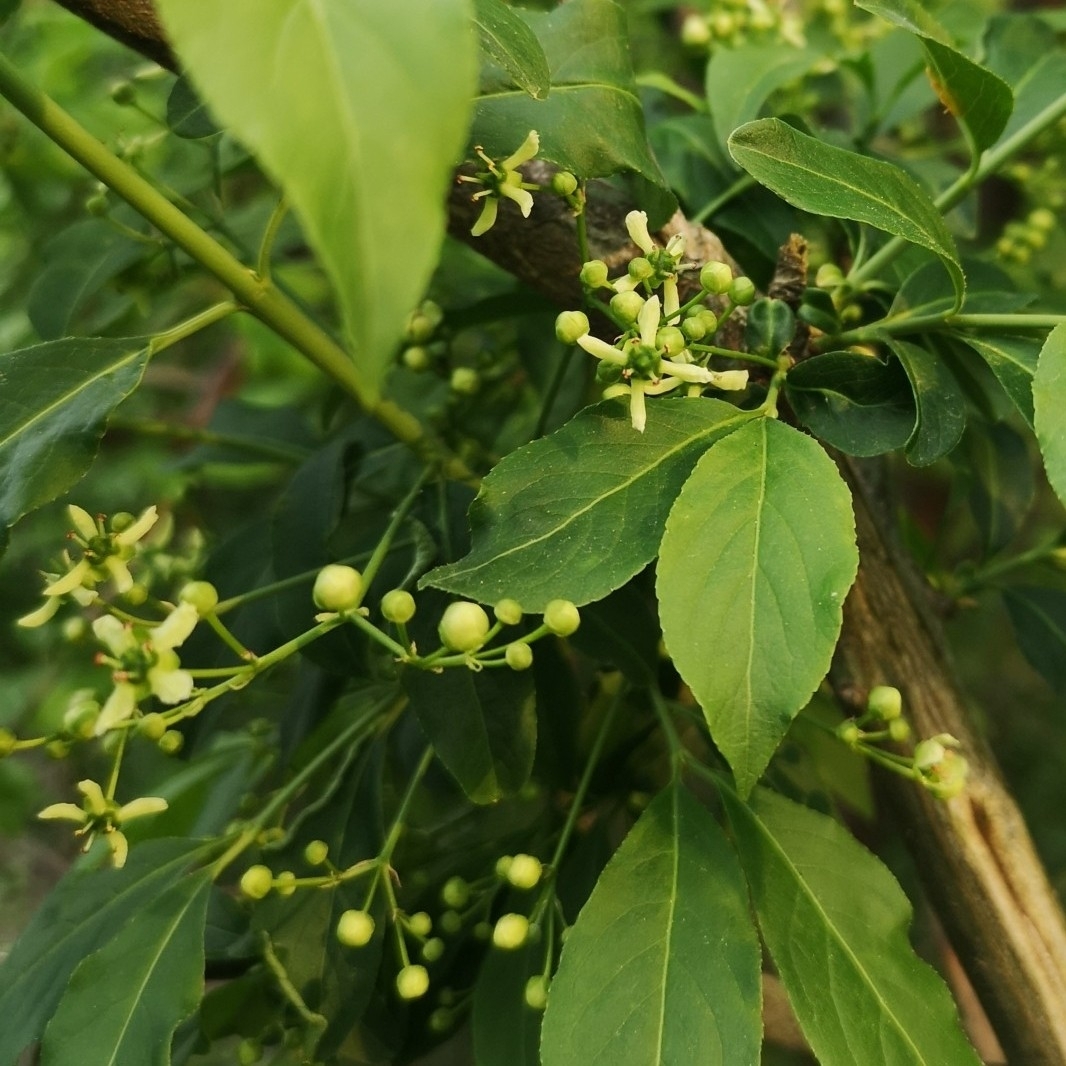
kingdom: Plantae
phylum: Tracheophyta
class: Magnoliopsida
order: Celastrales
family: Celastraceae
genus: Euonymus
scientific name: Euonymus europaeus
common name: Spindle
